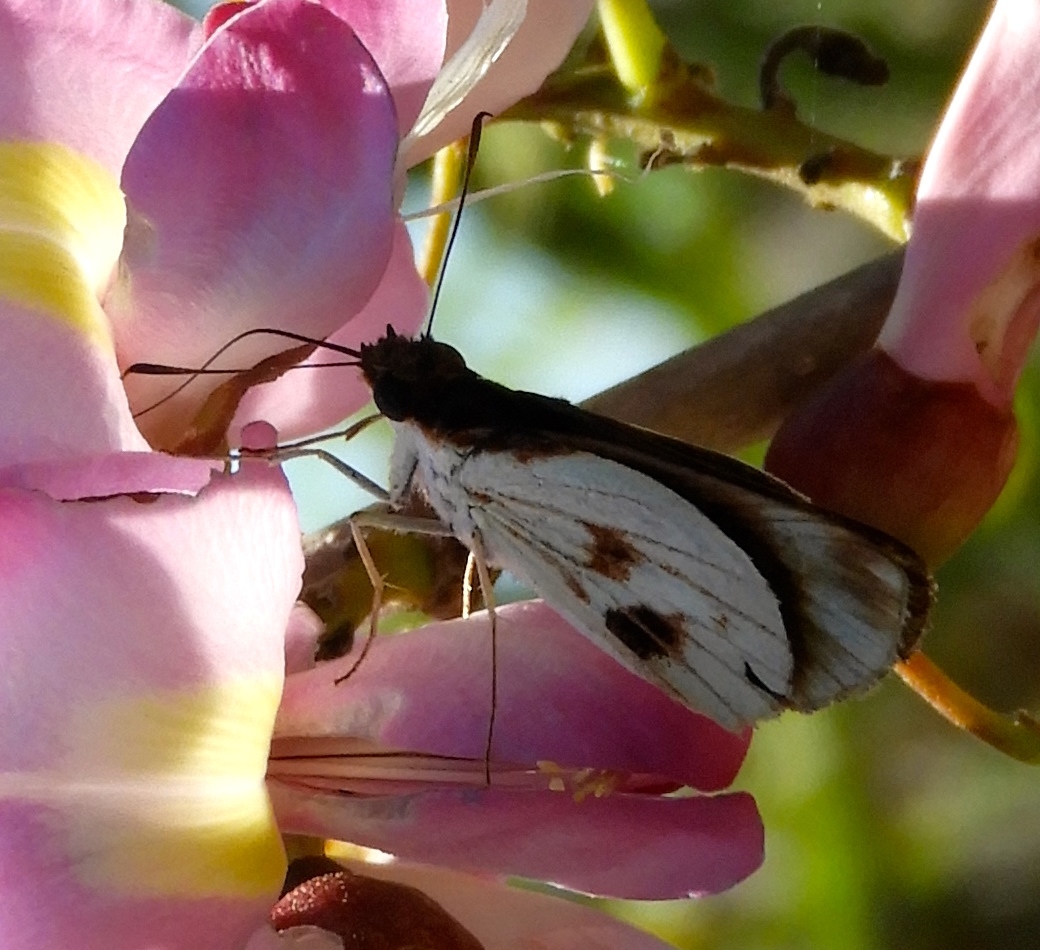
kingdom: Animalia
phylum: Arthropoda
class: Insecta
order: Lepidoptera
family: Hesperiidae
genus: Troyus
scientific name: Troyus fantasos
